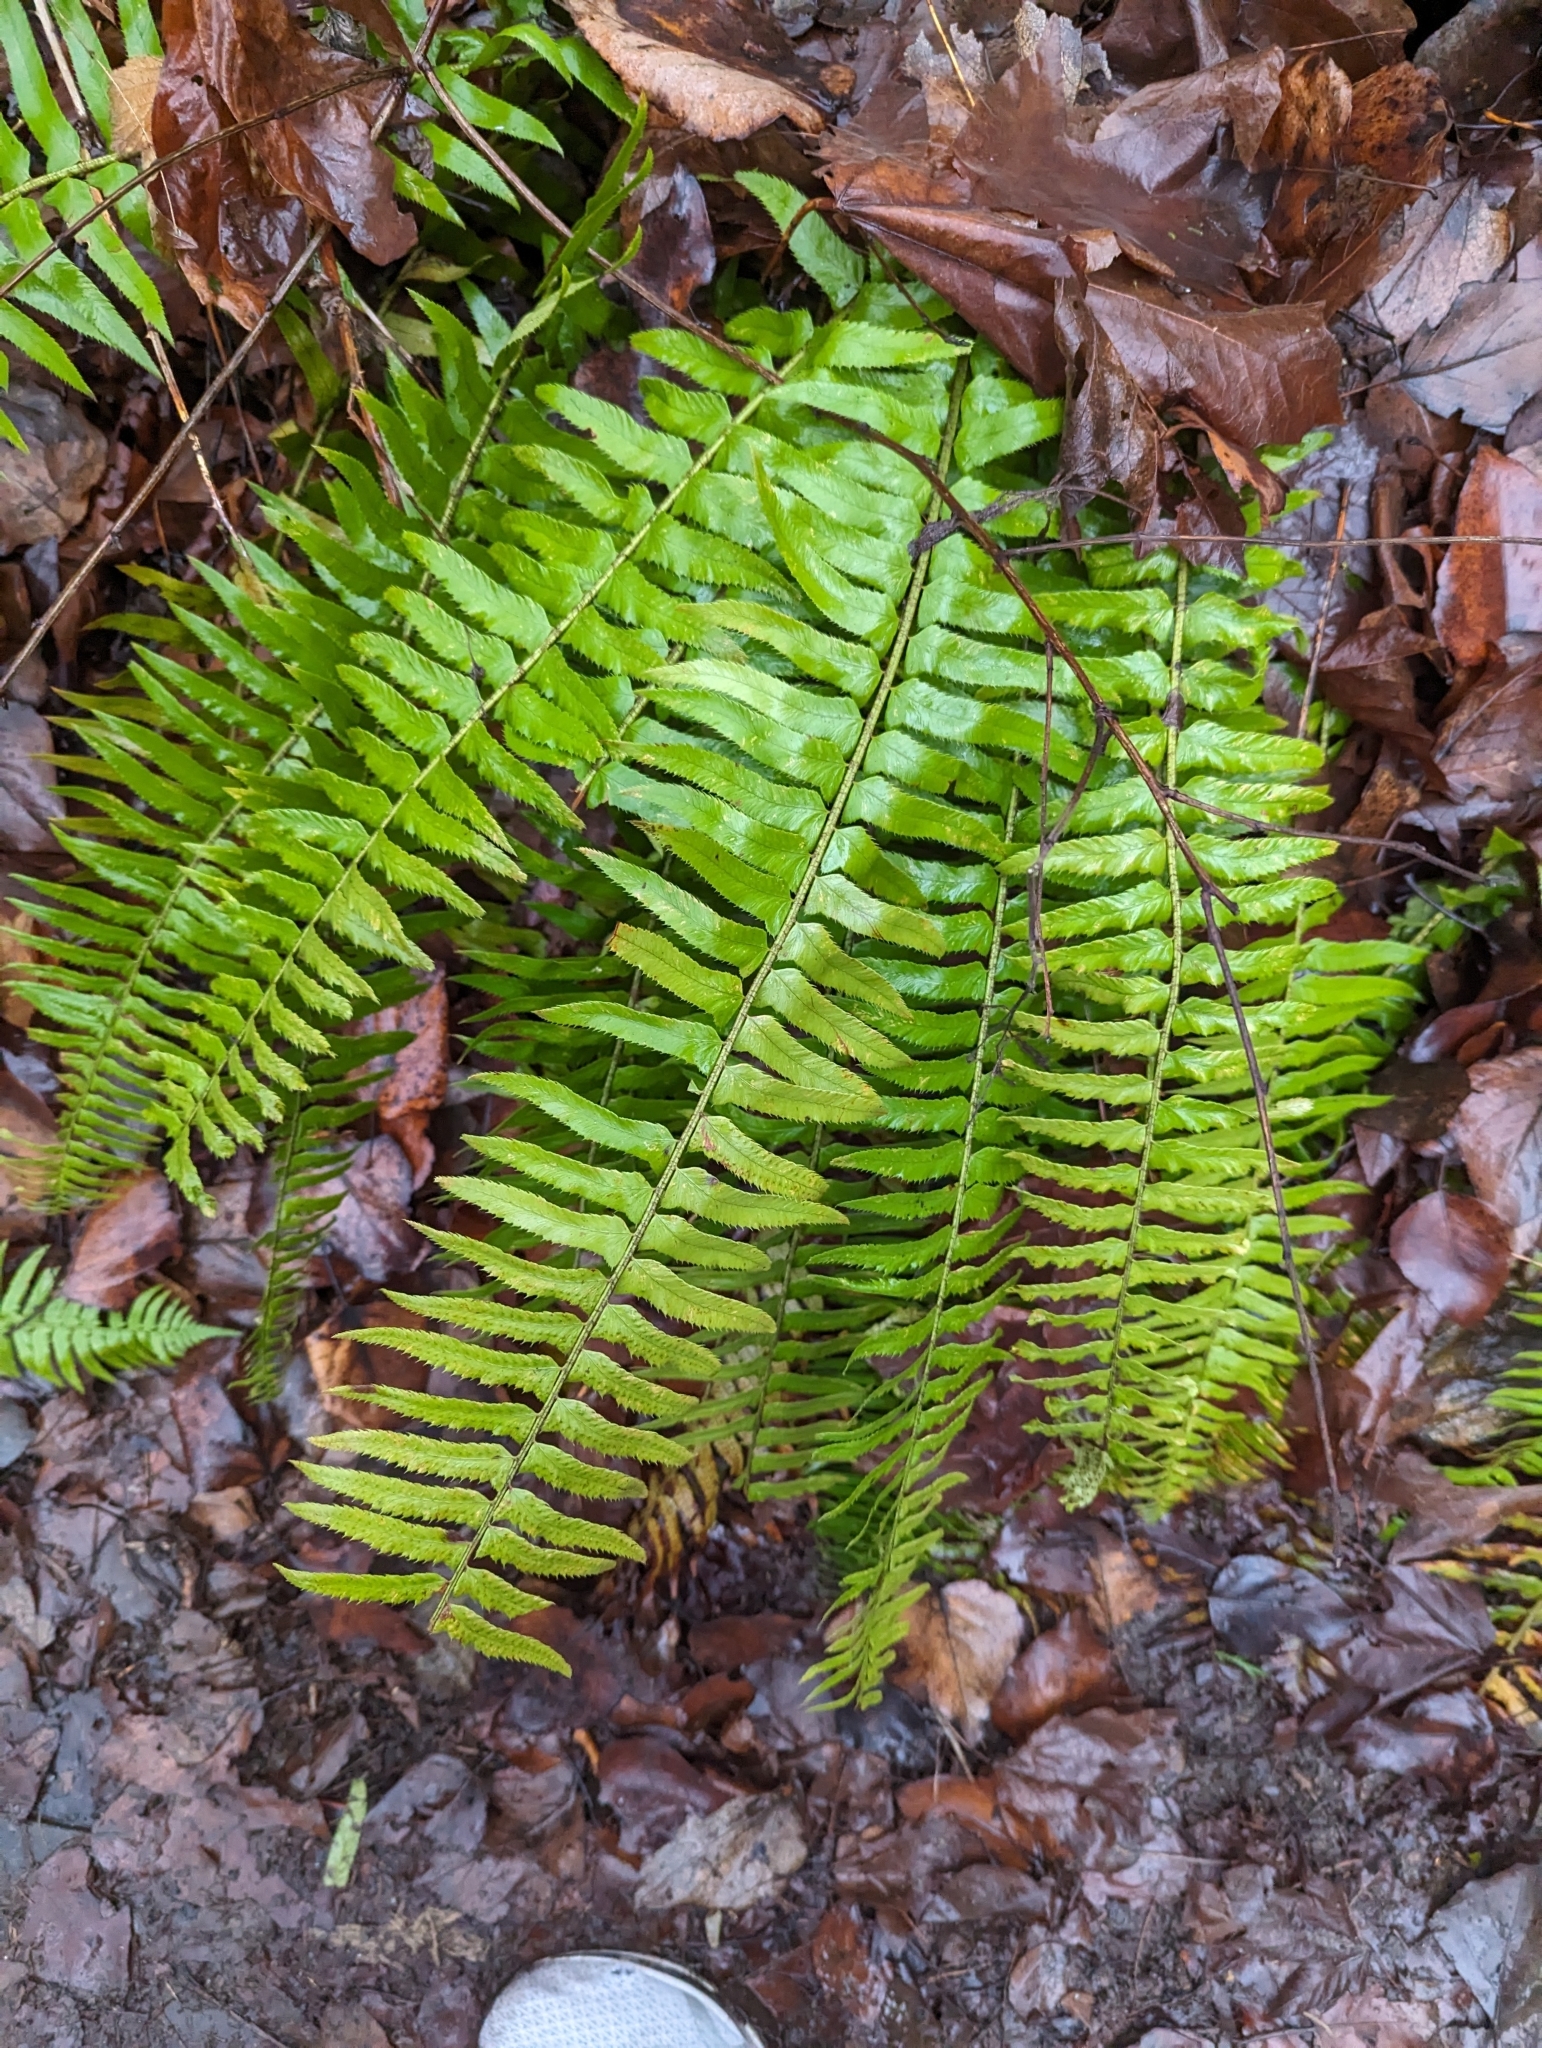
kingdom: Plantae
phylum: Tracheophyta
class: Polypodiopsida
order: Polypodiales
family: Dryopteridaceae
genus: Polystichum
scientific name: Polystichum munitum
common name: Western sword-fern
